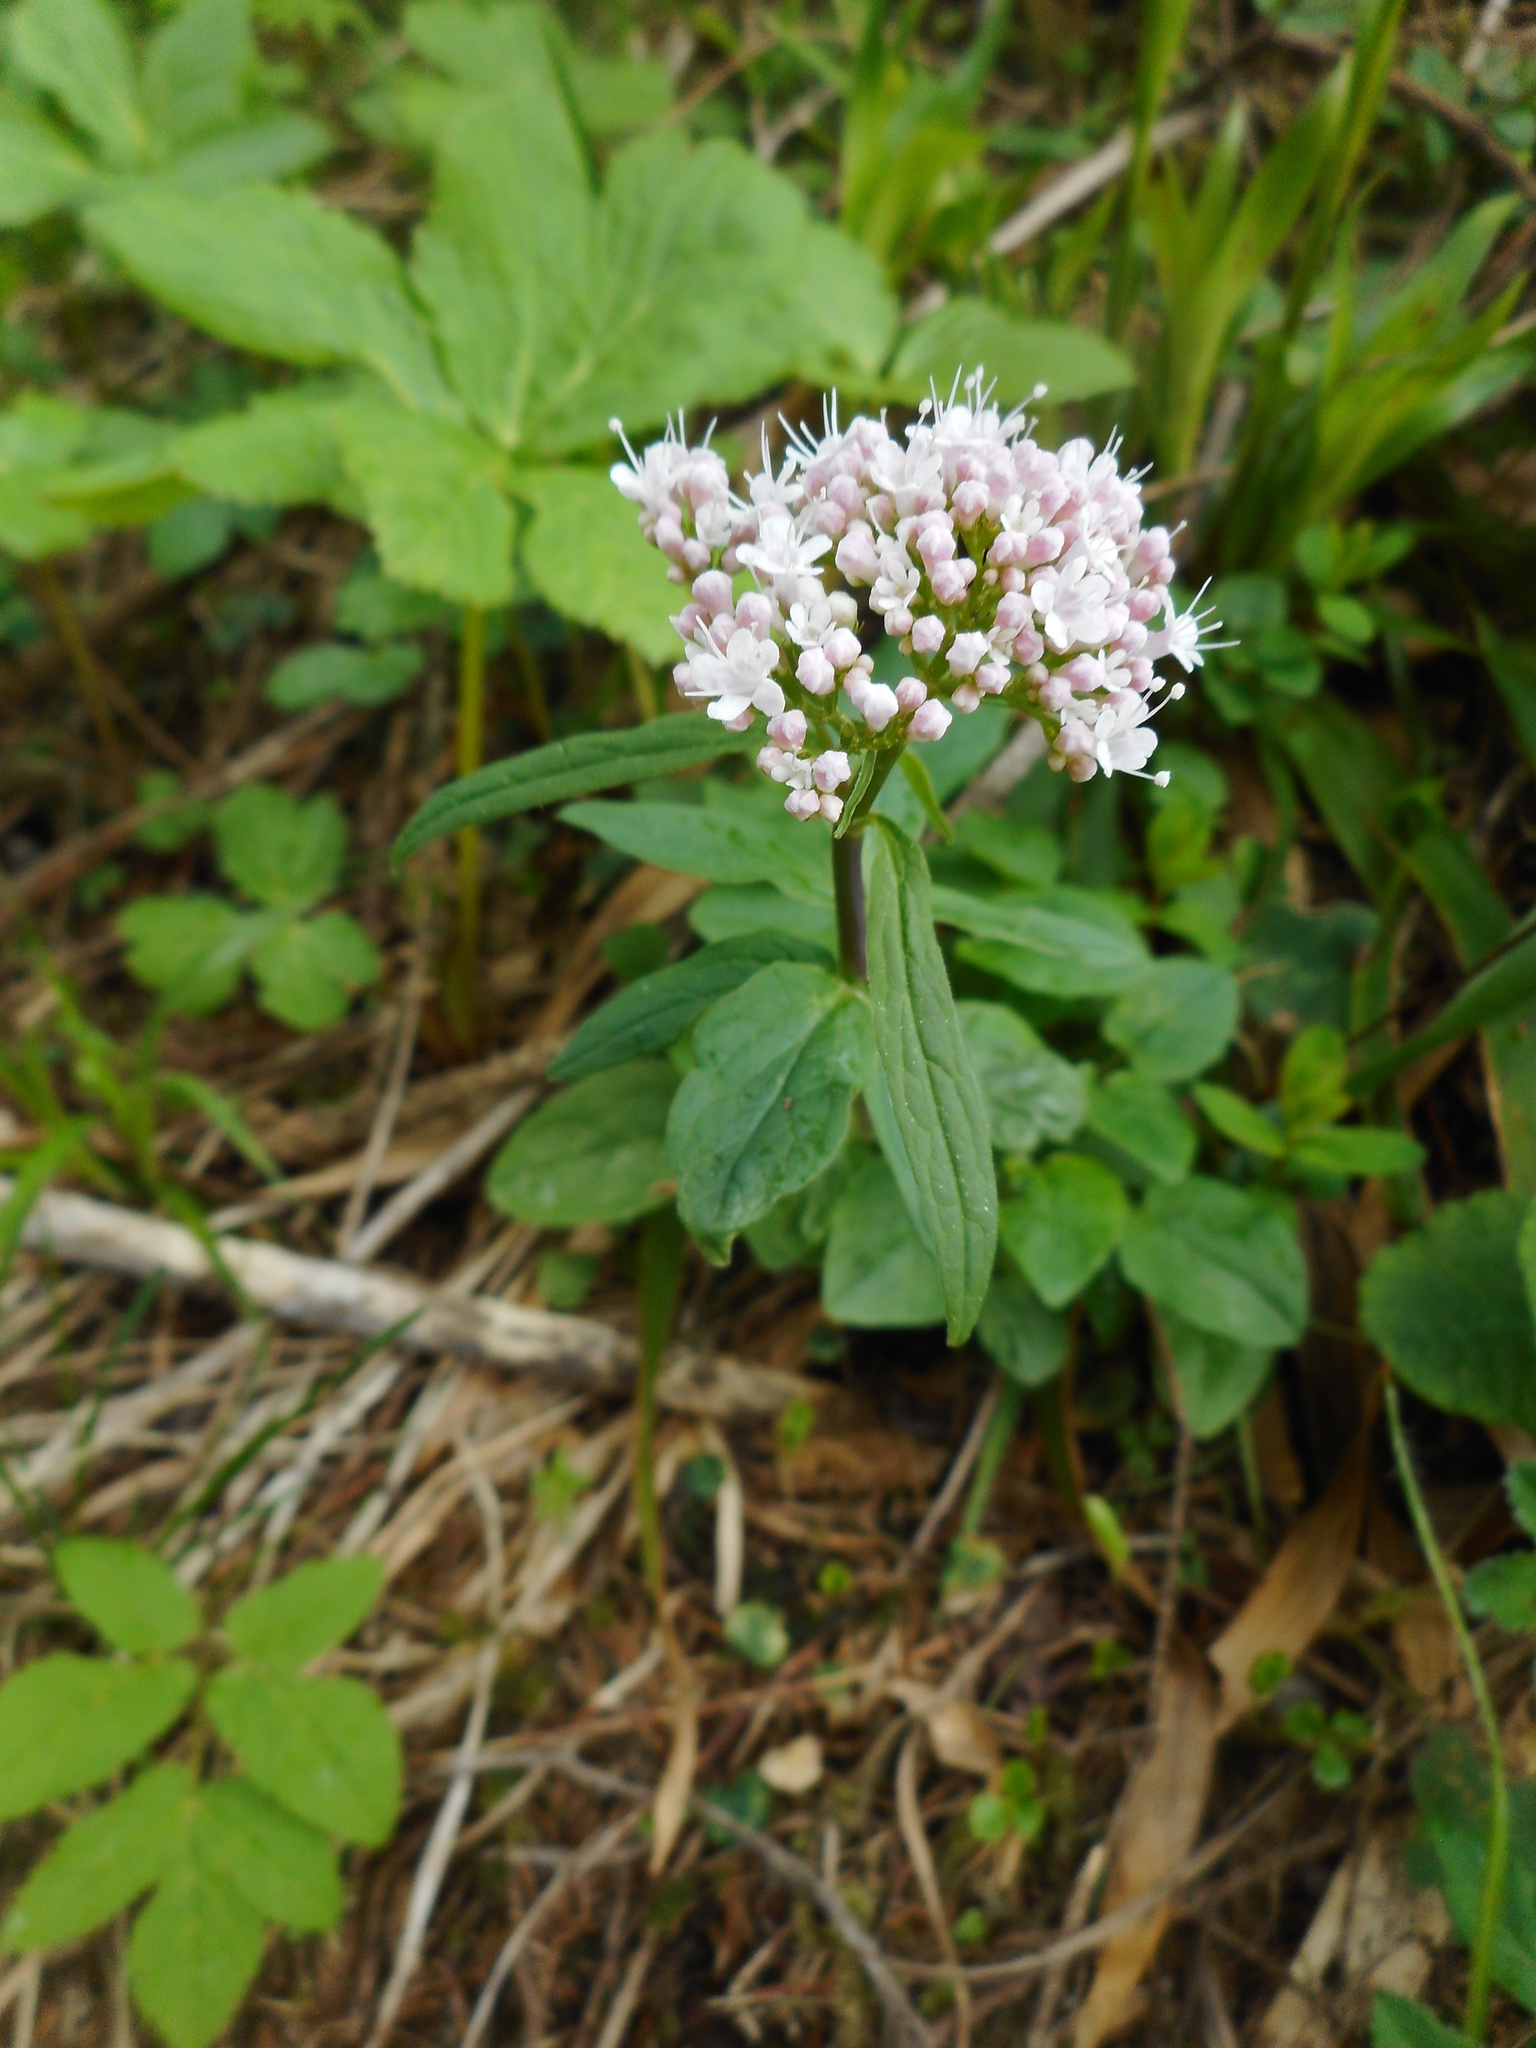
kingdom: Plantae
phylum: Tracheophyta
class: Magnoliopsida
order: Dipsacales
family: Caprifoliaceae
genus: Valeriana
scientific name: Valeriana tripteris
